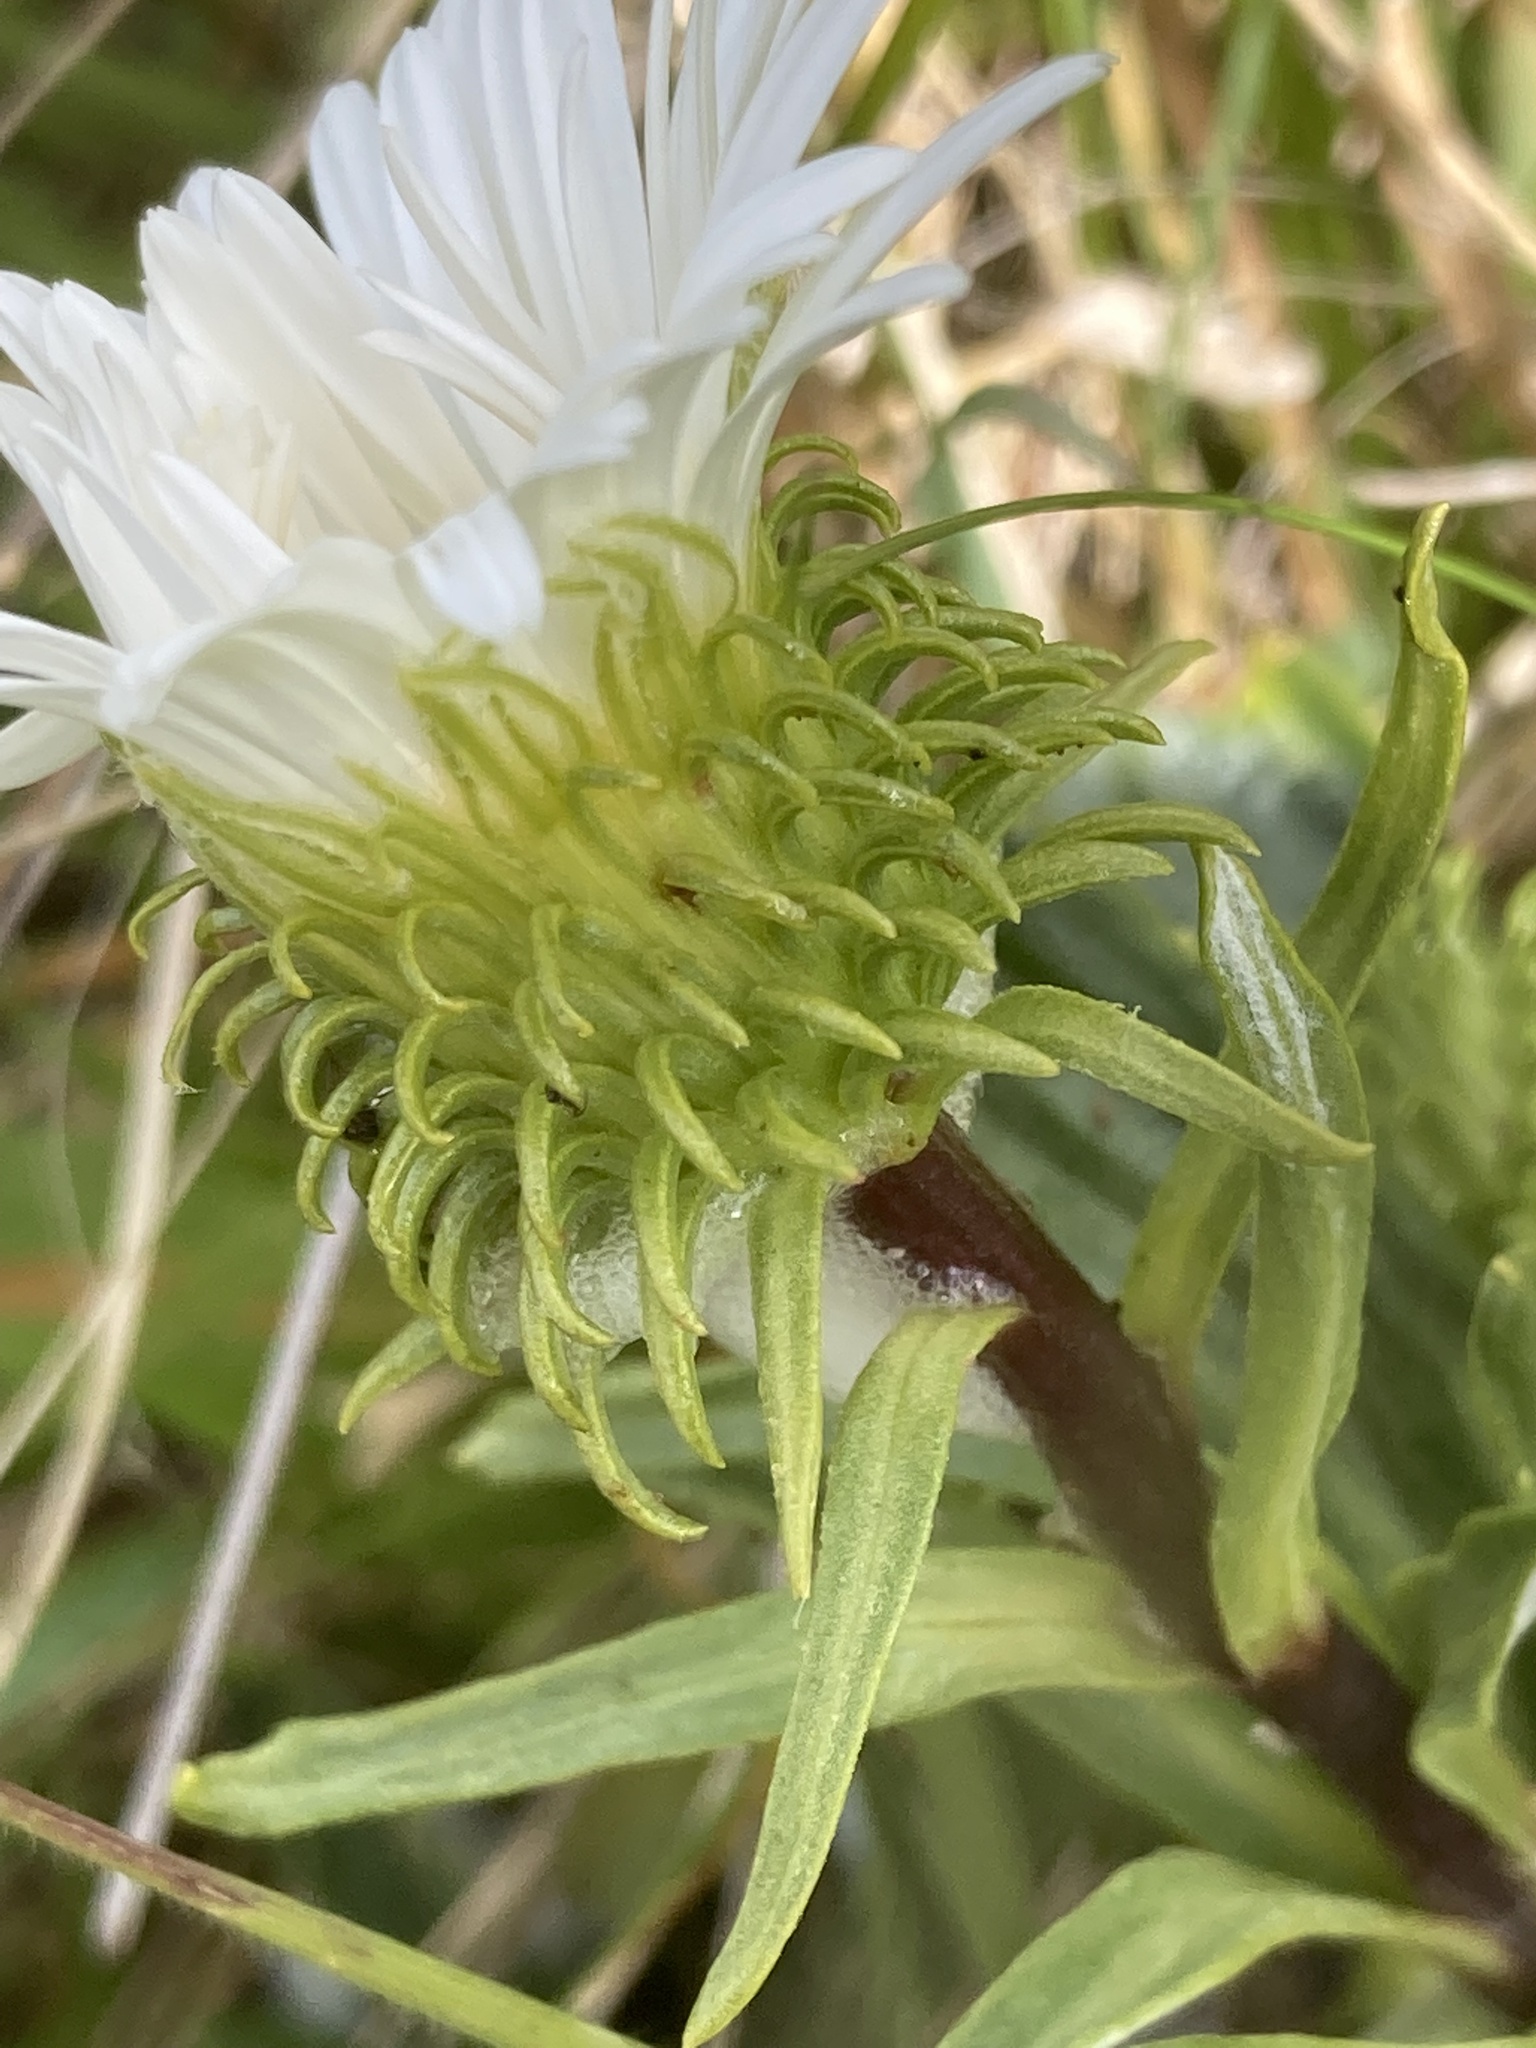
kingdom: Plantae
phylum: Tracheophyta
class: Magnoliopsida
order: Asterales
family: Asteraceae
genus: Celmisia
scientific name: Celmisia densiflora
